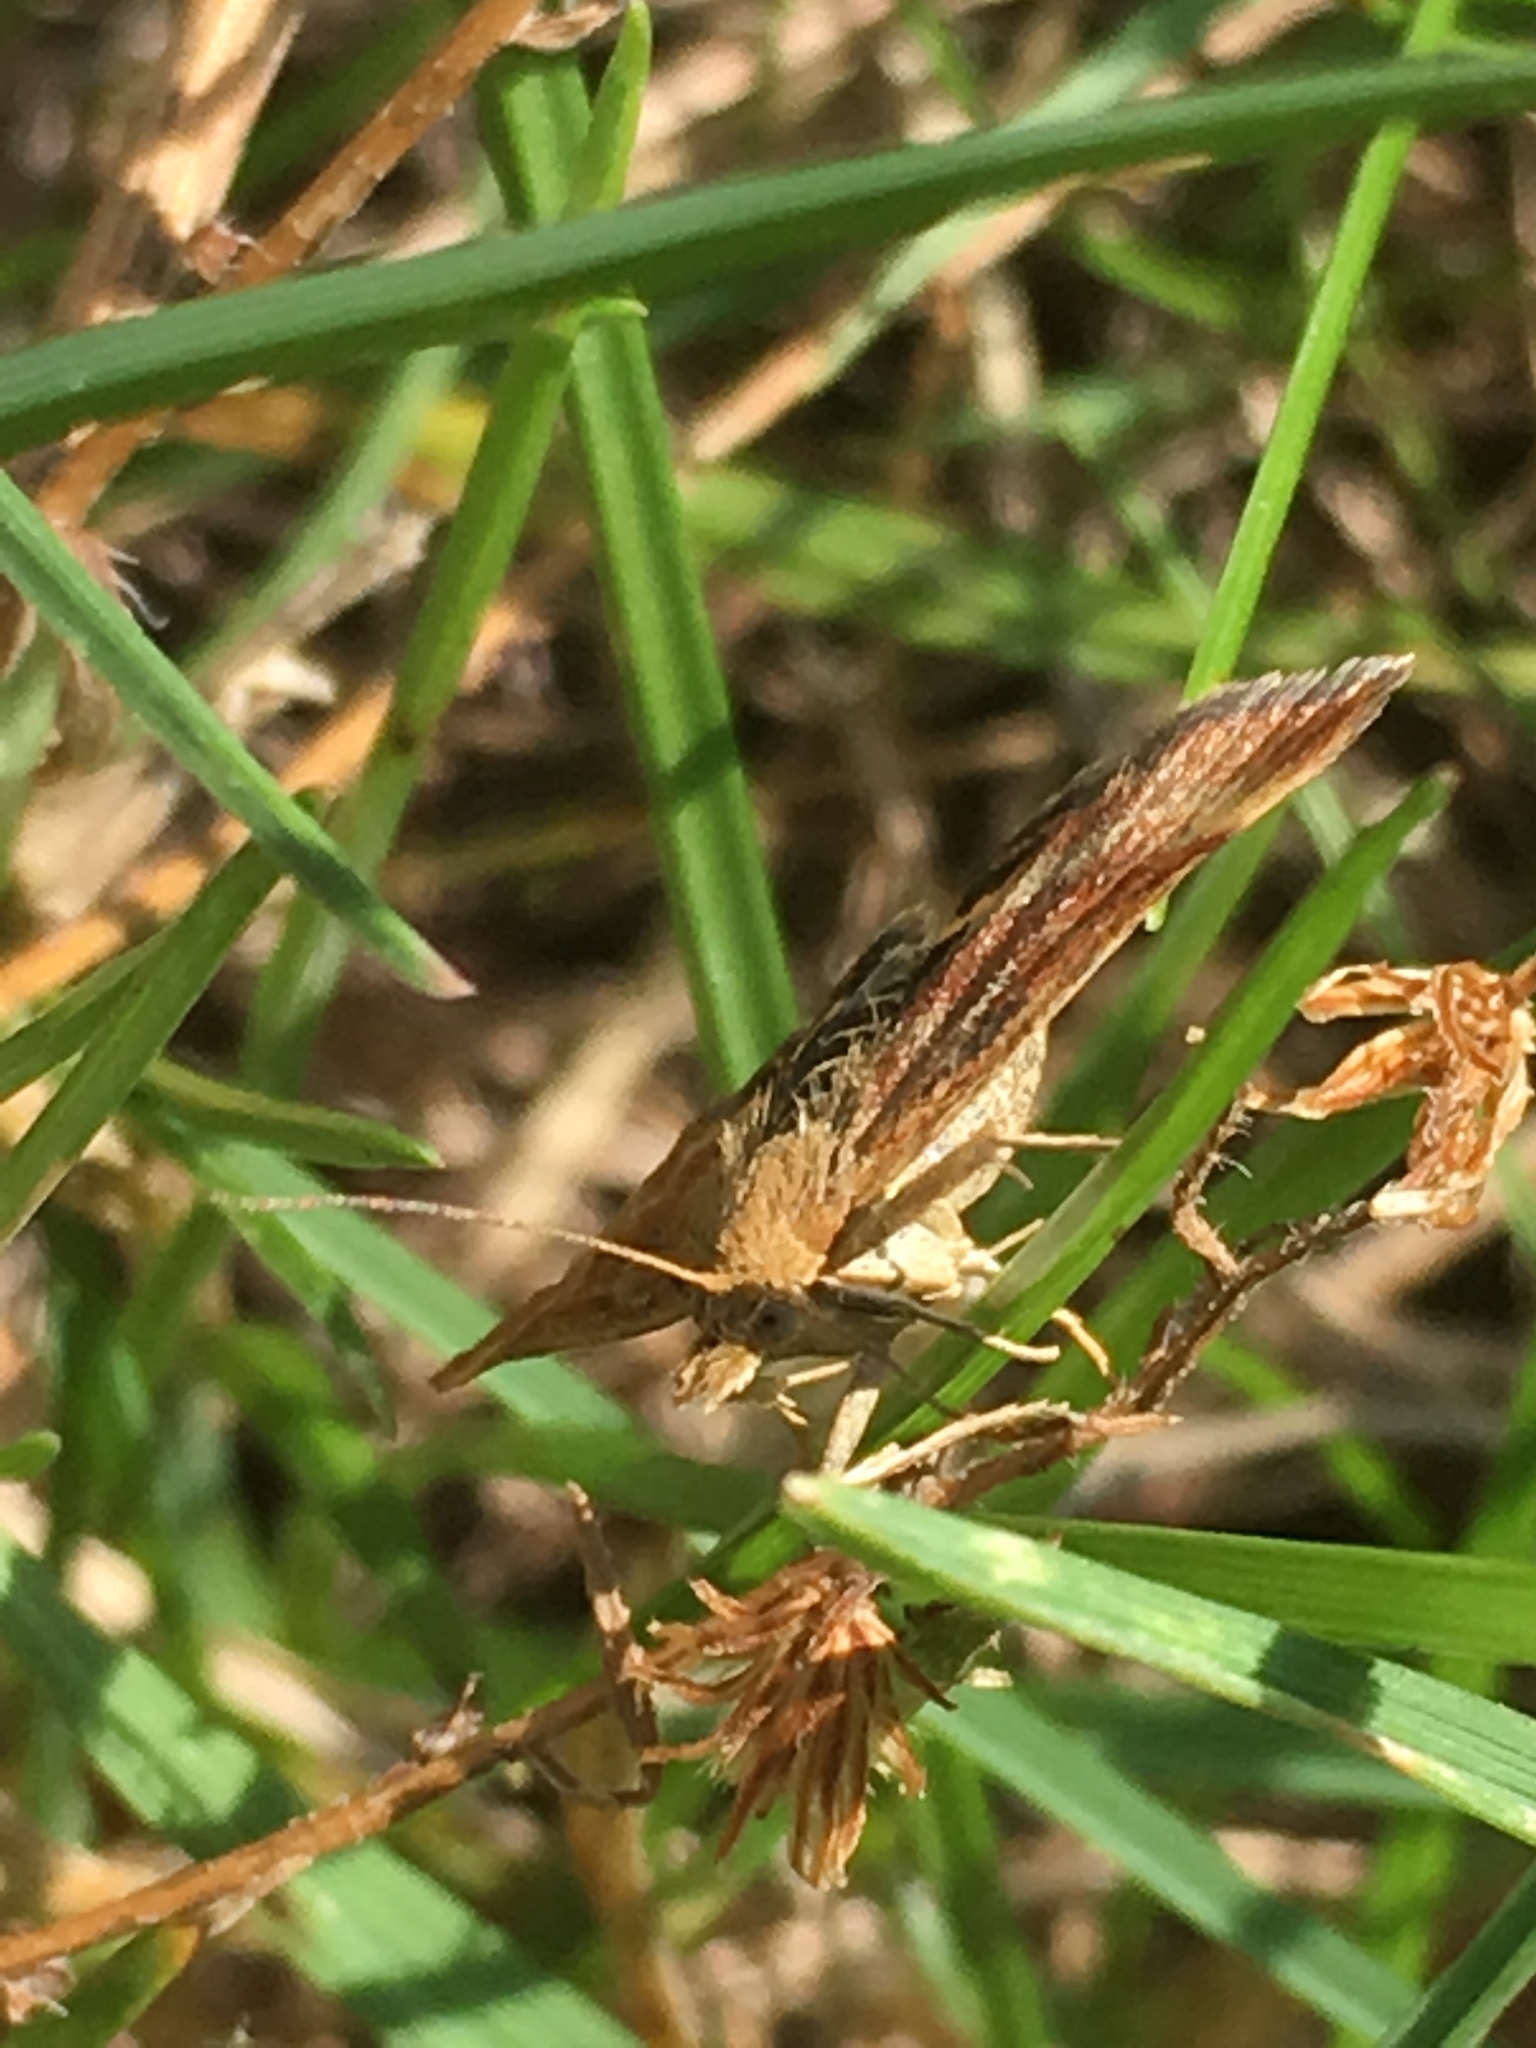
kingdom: Animalia
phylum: Arthropoda
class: Insecta
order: Lepidoptera
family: Crambidae
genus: Pyrausta
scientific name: Pyrausta despicata
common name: Straw-barred pearl
